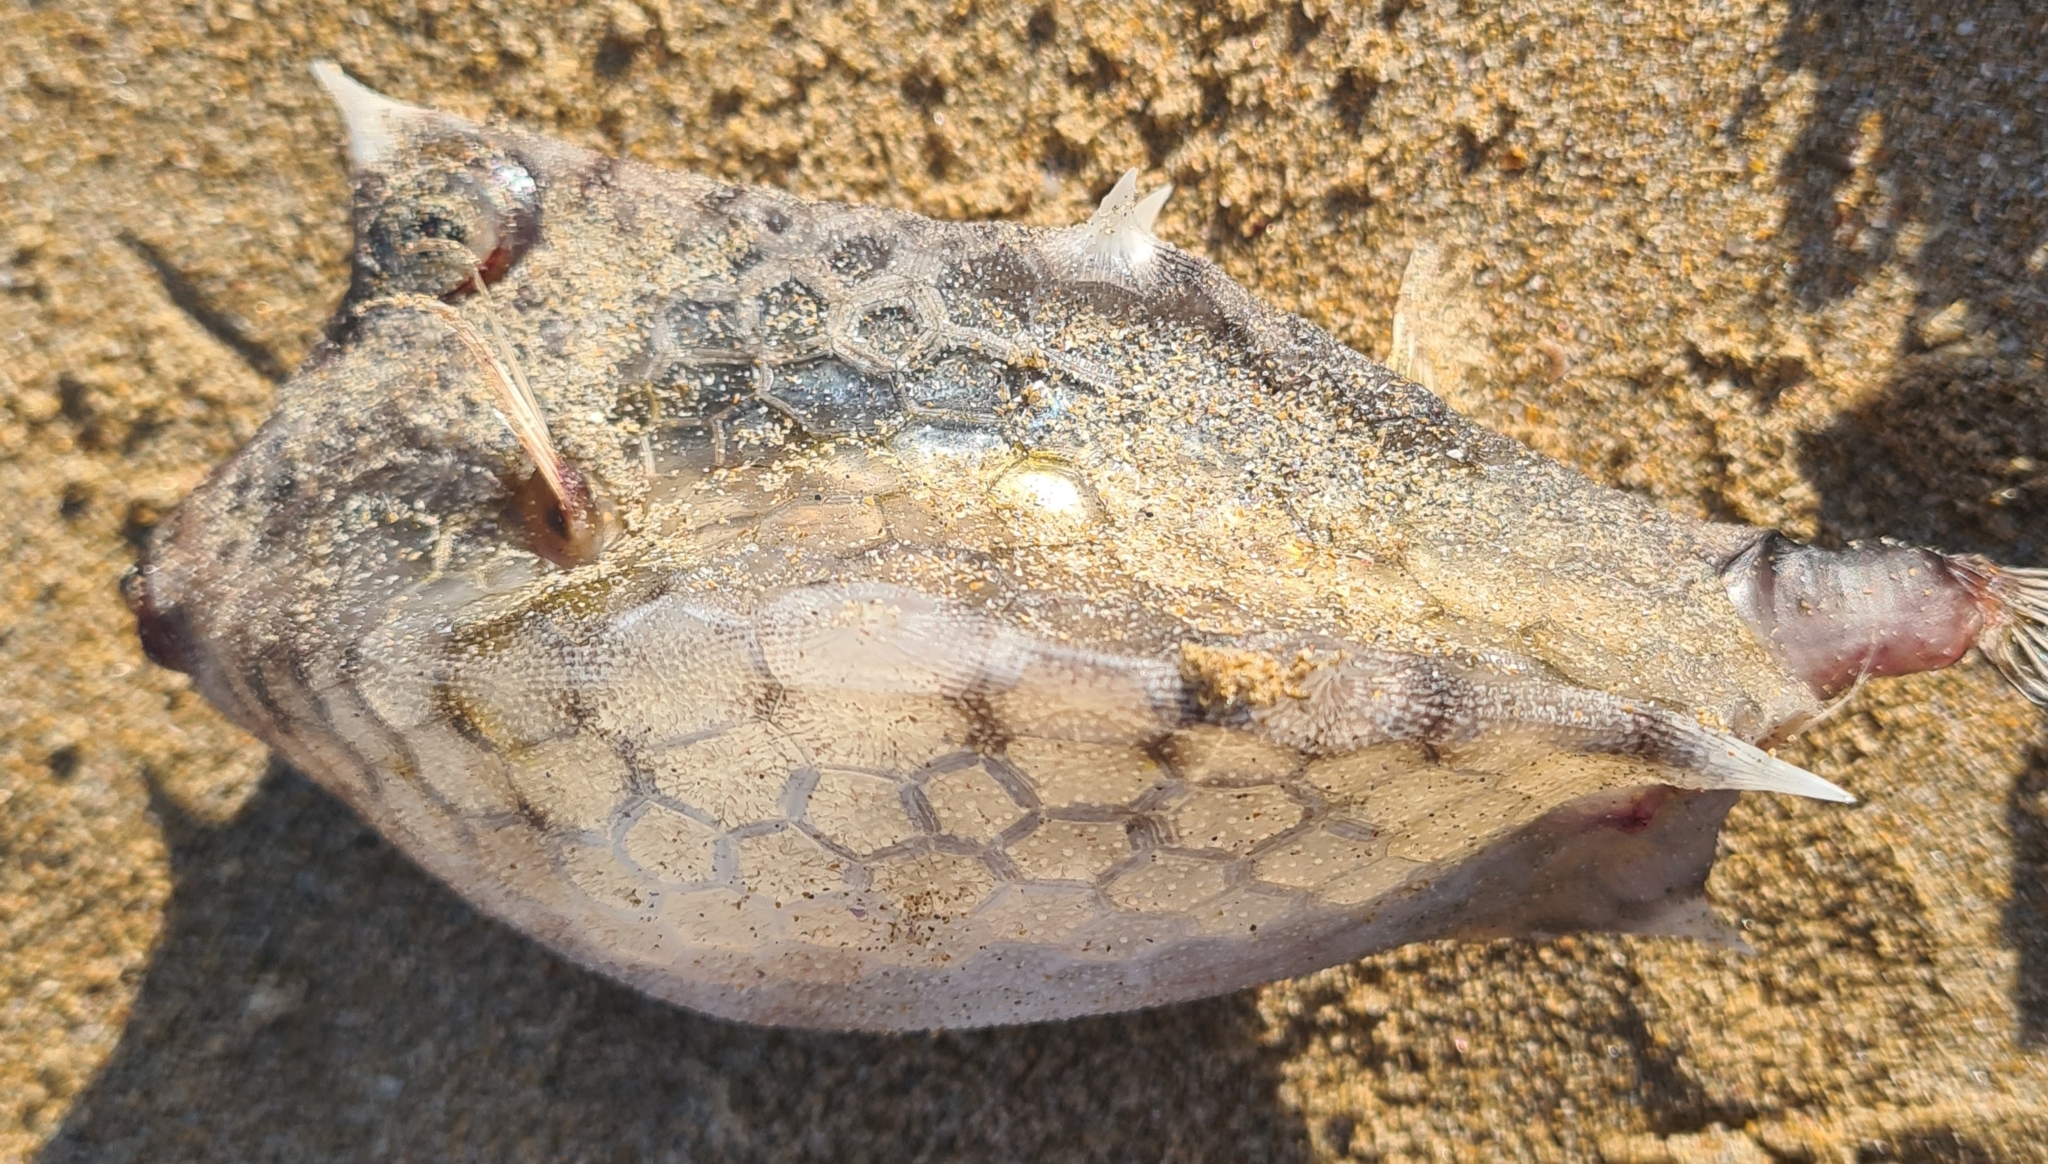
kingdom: Animalia
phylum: Chordata
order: Tetraodontiformes
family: Ostraciidae
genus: Lactoria
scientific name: Lactoria diaphana
